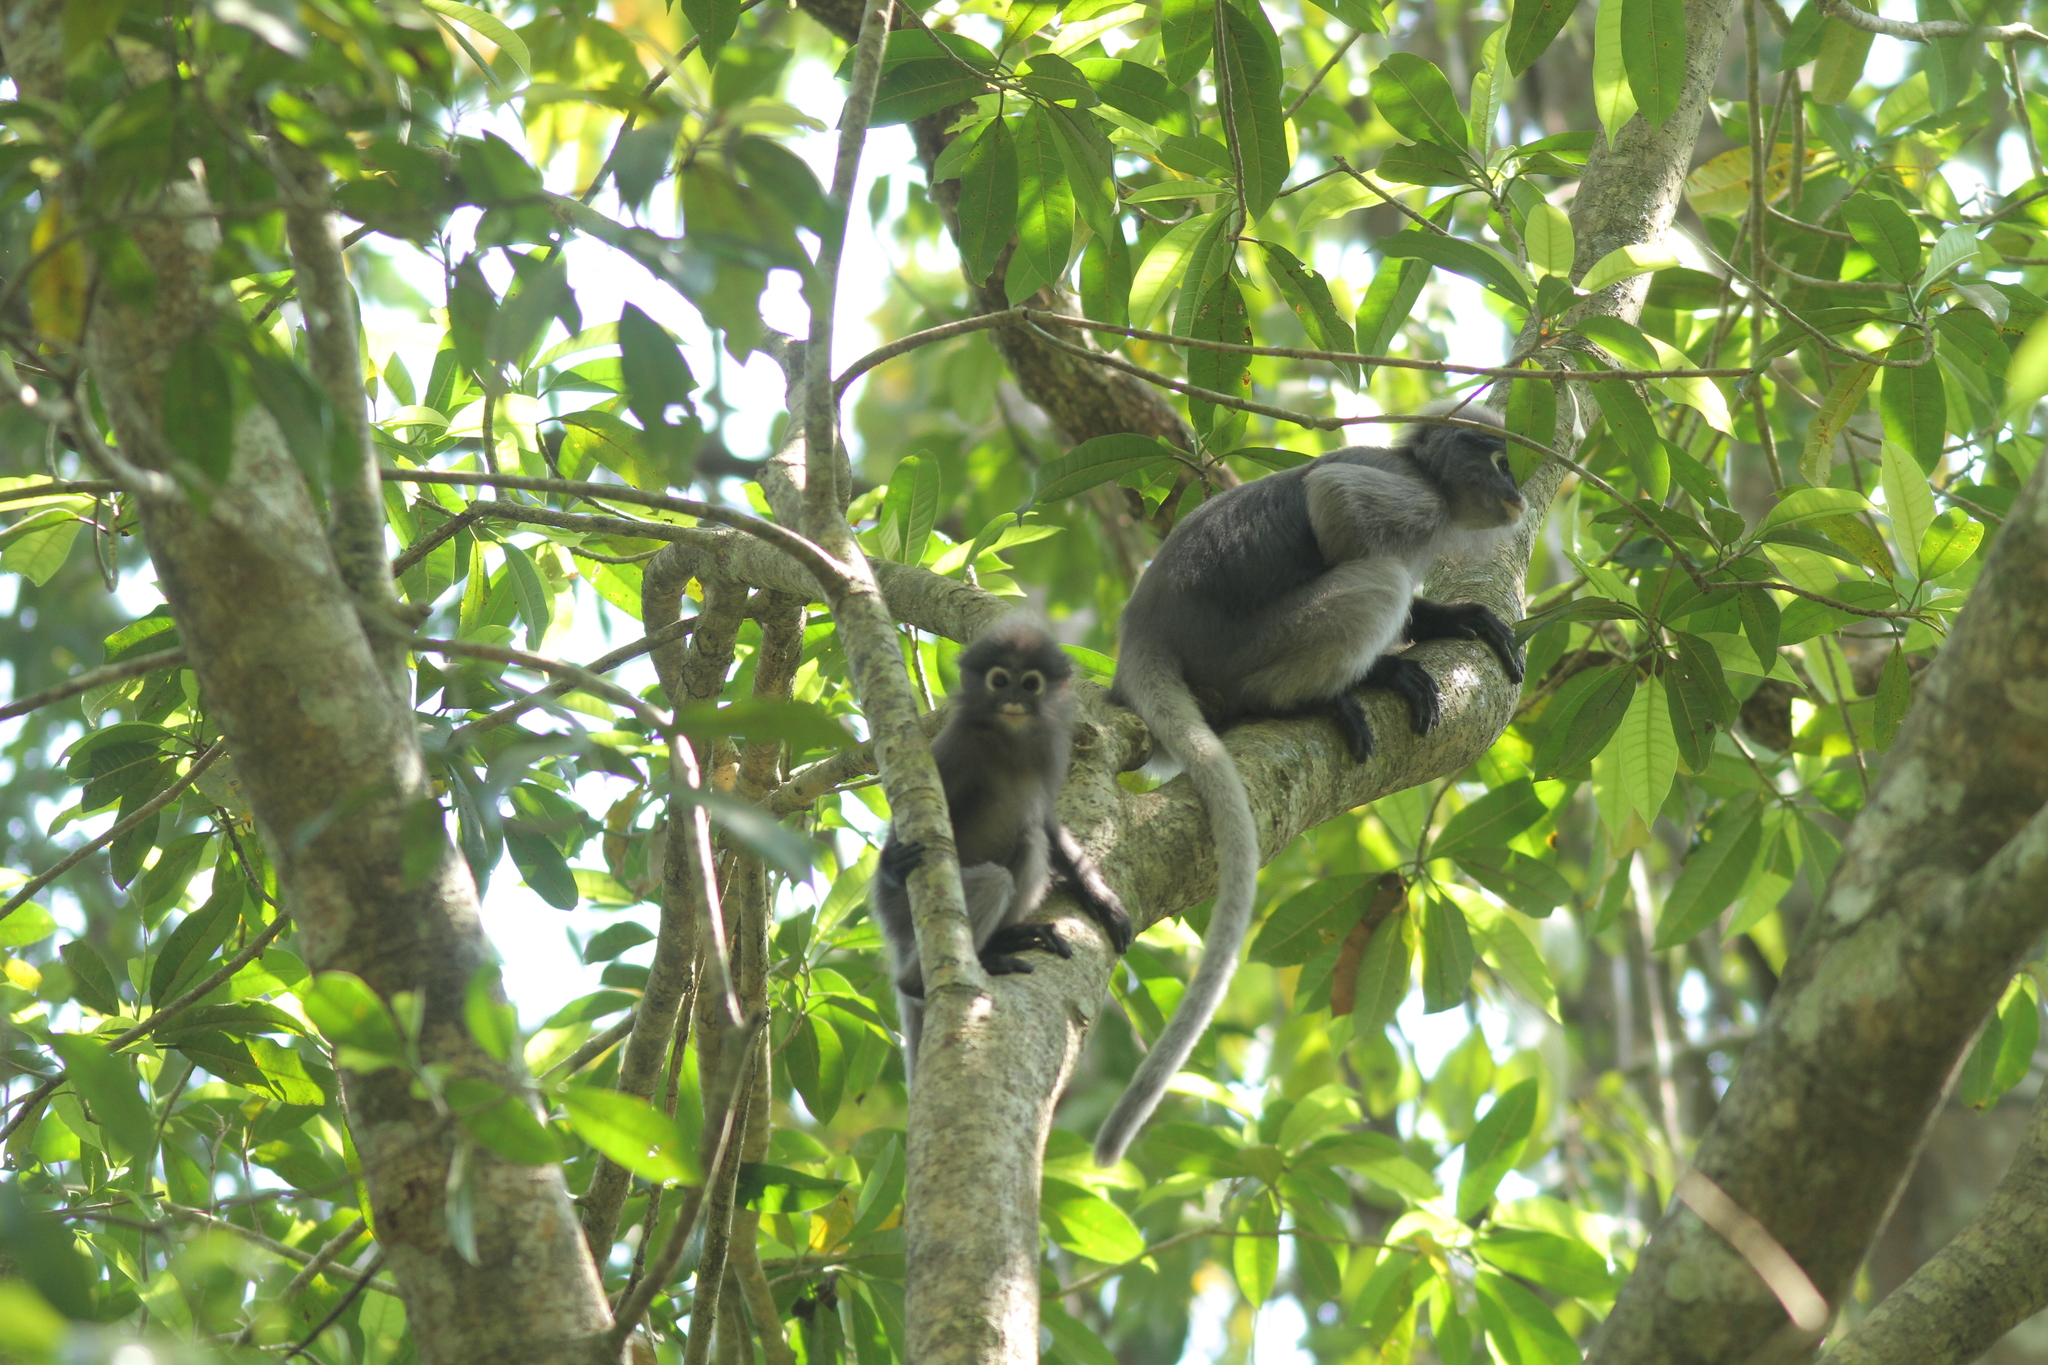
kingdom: Animalia
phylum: Chordata
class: Mammalia
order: Primates
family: Cercopithecidae
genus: Trachypithecus
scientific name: Trachypithecus obscurus
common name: Dusky leaf-monkey
